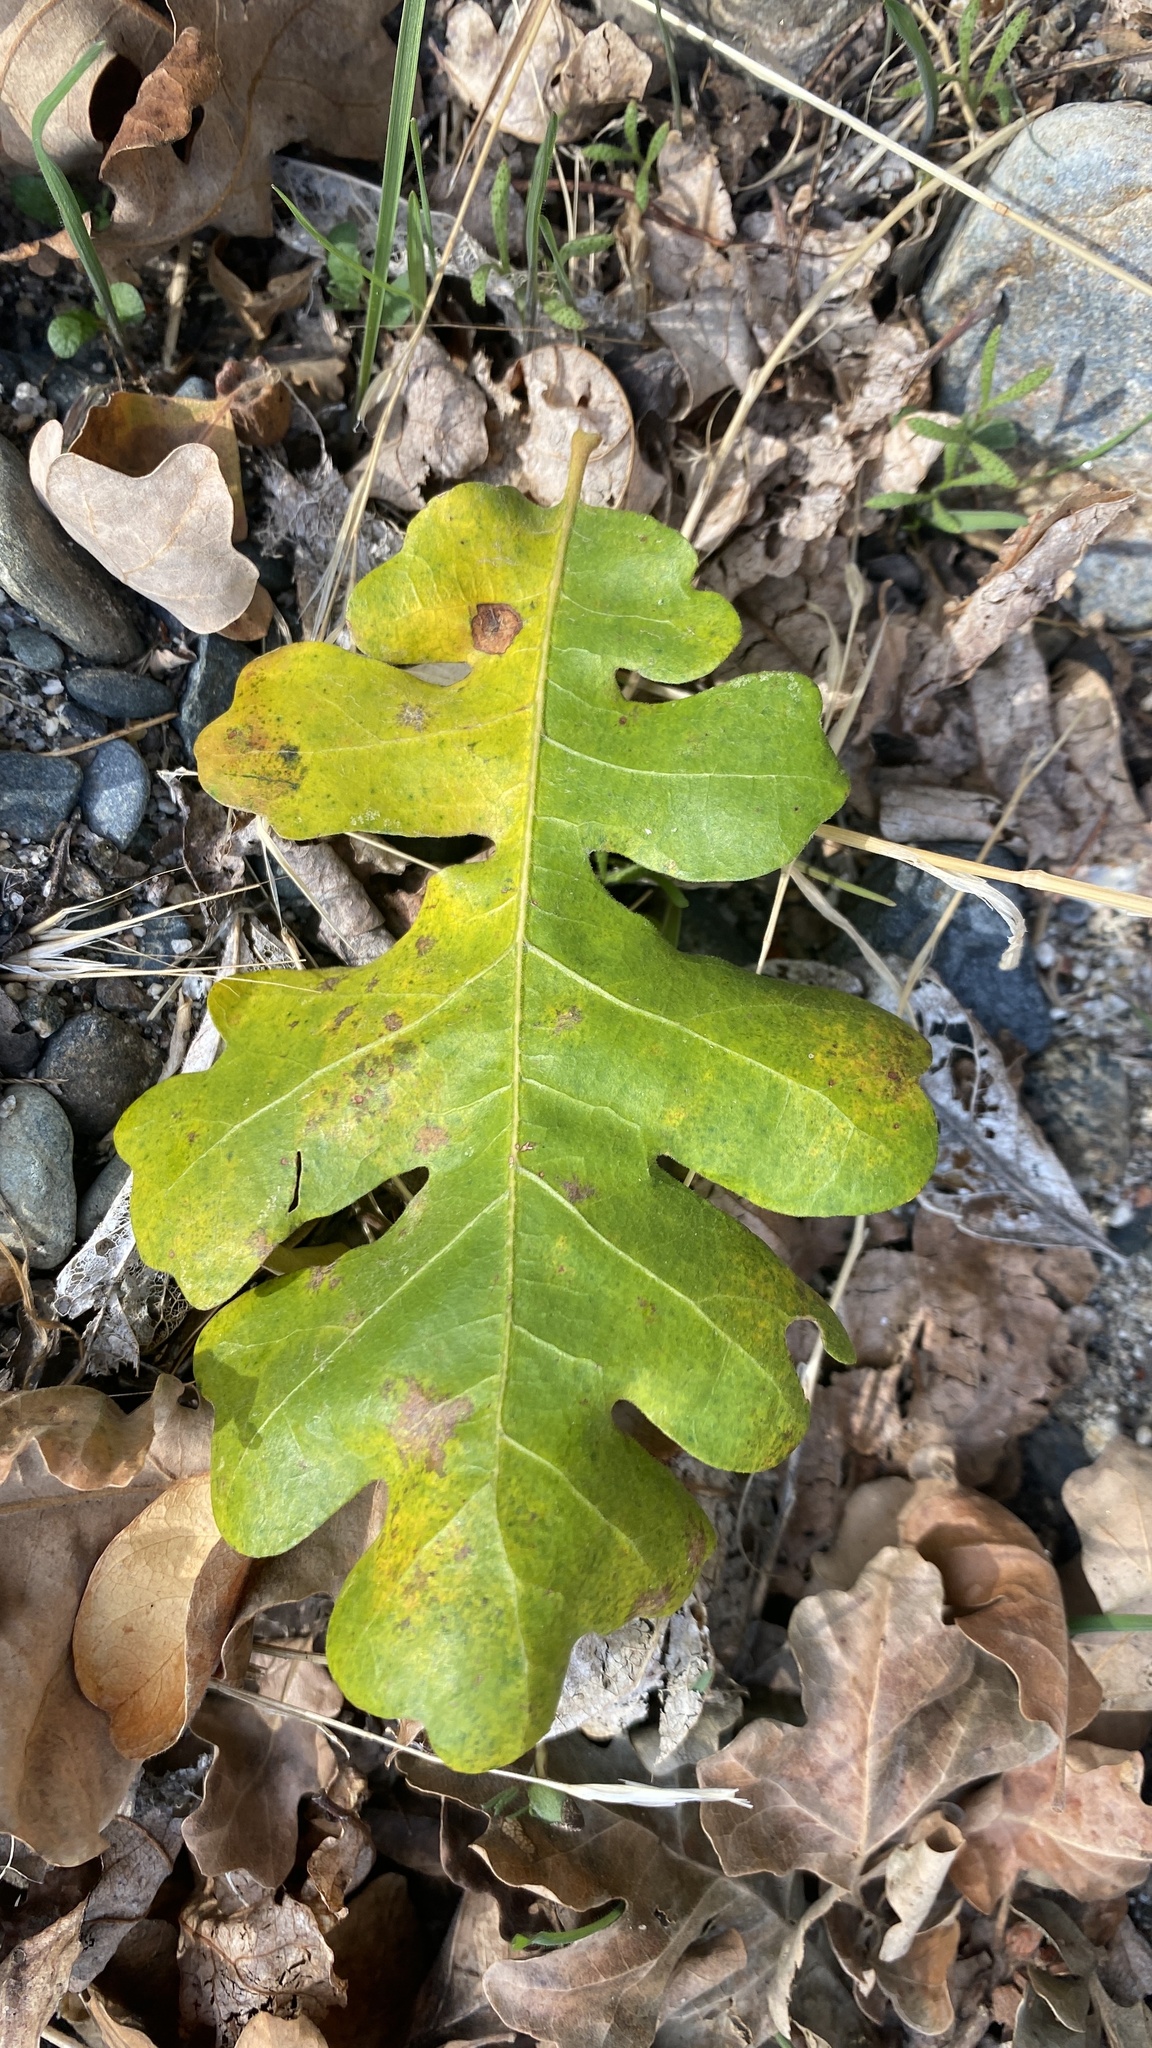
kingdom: Plantae
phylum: Tracheophyta
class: Magnoliopsida
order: Fagales
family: Fagaceae
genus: Quercus
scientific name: Quercus lobata
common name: Valley oak
